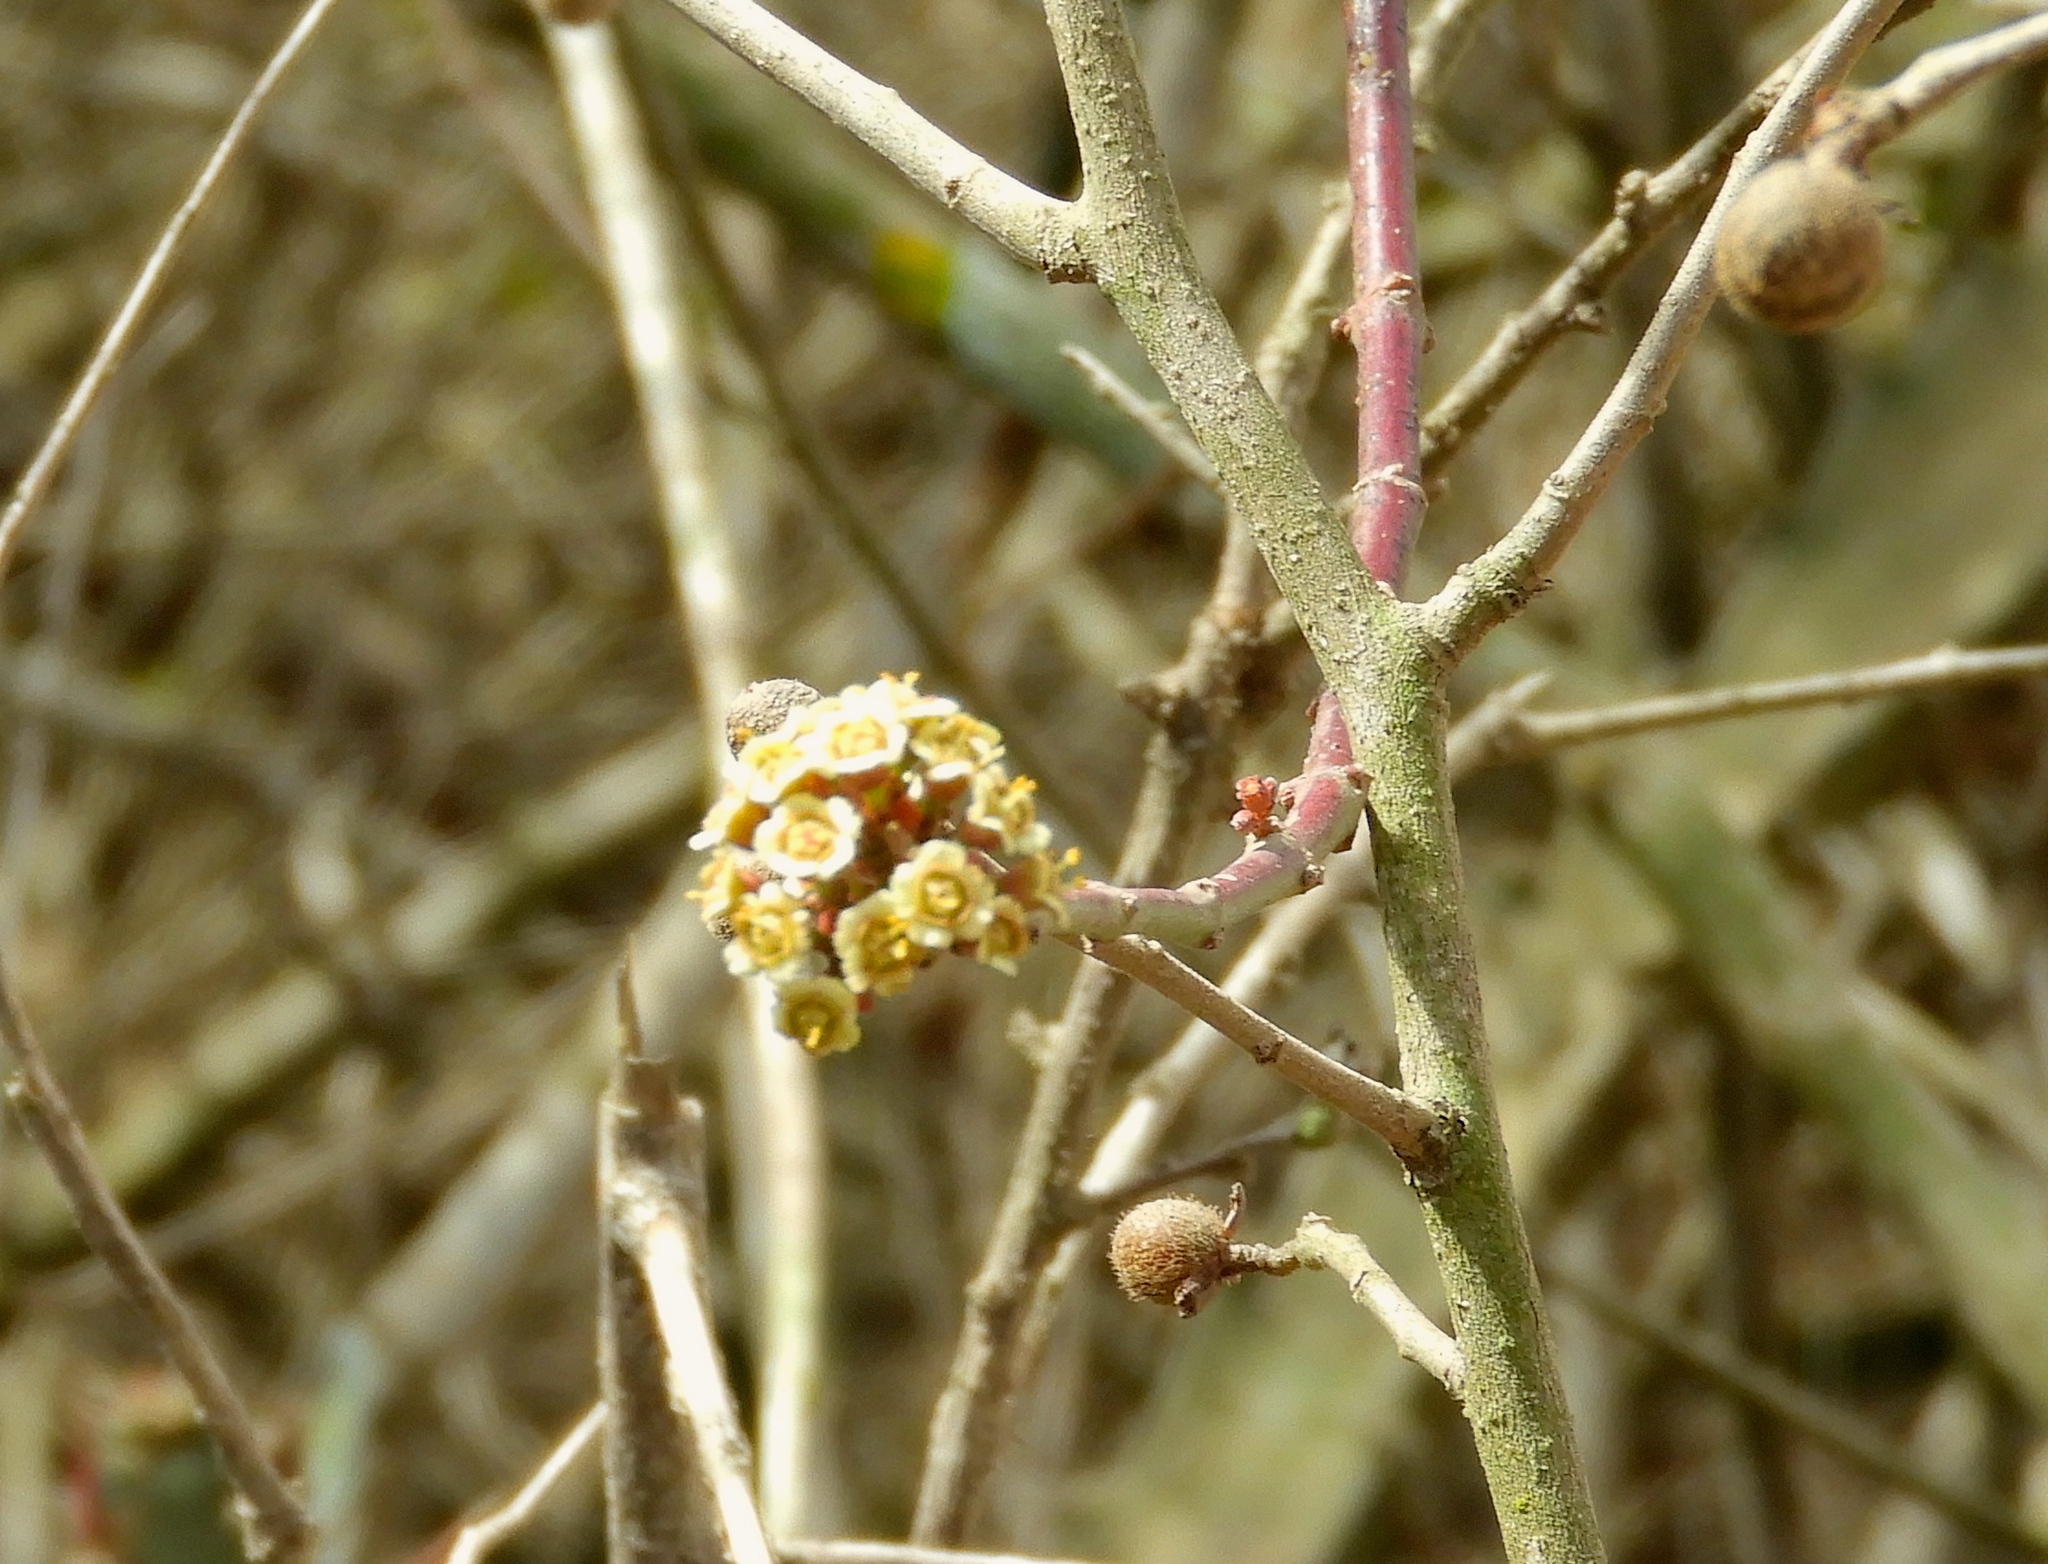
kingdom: Plantae
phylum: Tracheophyta
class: Magnoliopsida
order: Malpighiales
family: Euphorbiaceae
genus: Euphorbia
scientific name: Euphorbia colletioides
